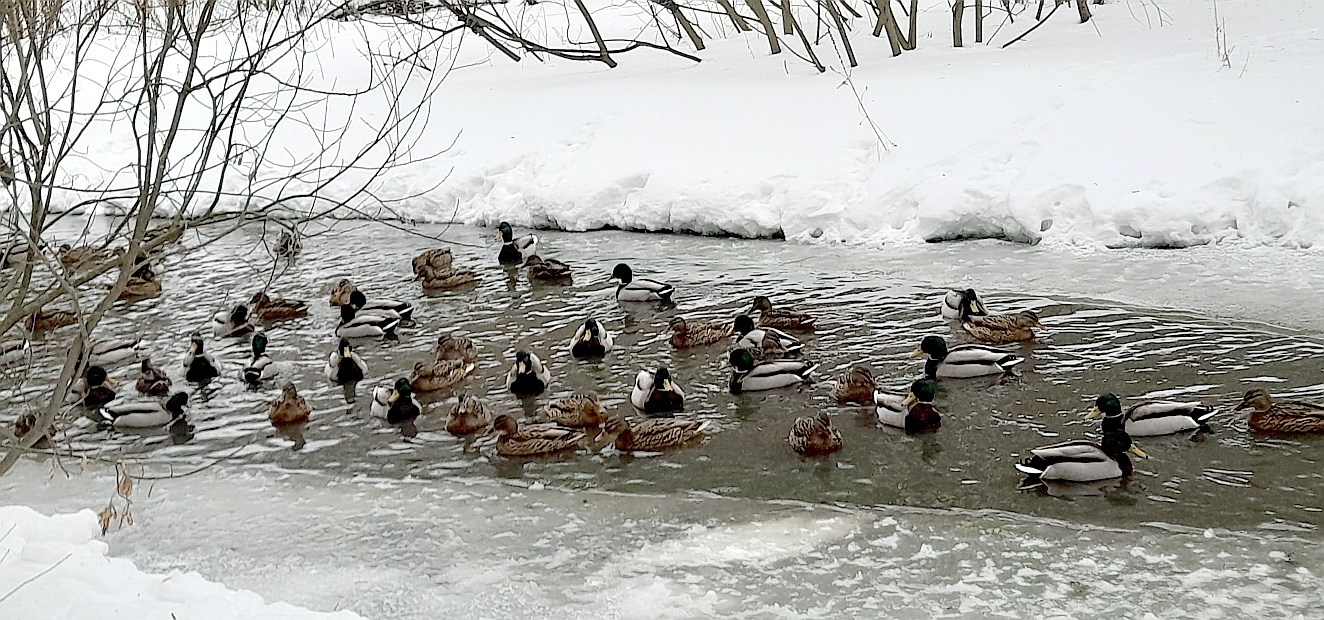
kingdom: Animalia
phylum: Chordata
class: Aves
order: Anseriformes
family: Anatidae
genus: Anas
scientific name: Anas platyrhynchos
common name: Mallard
